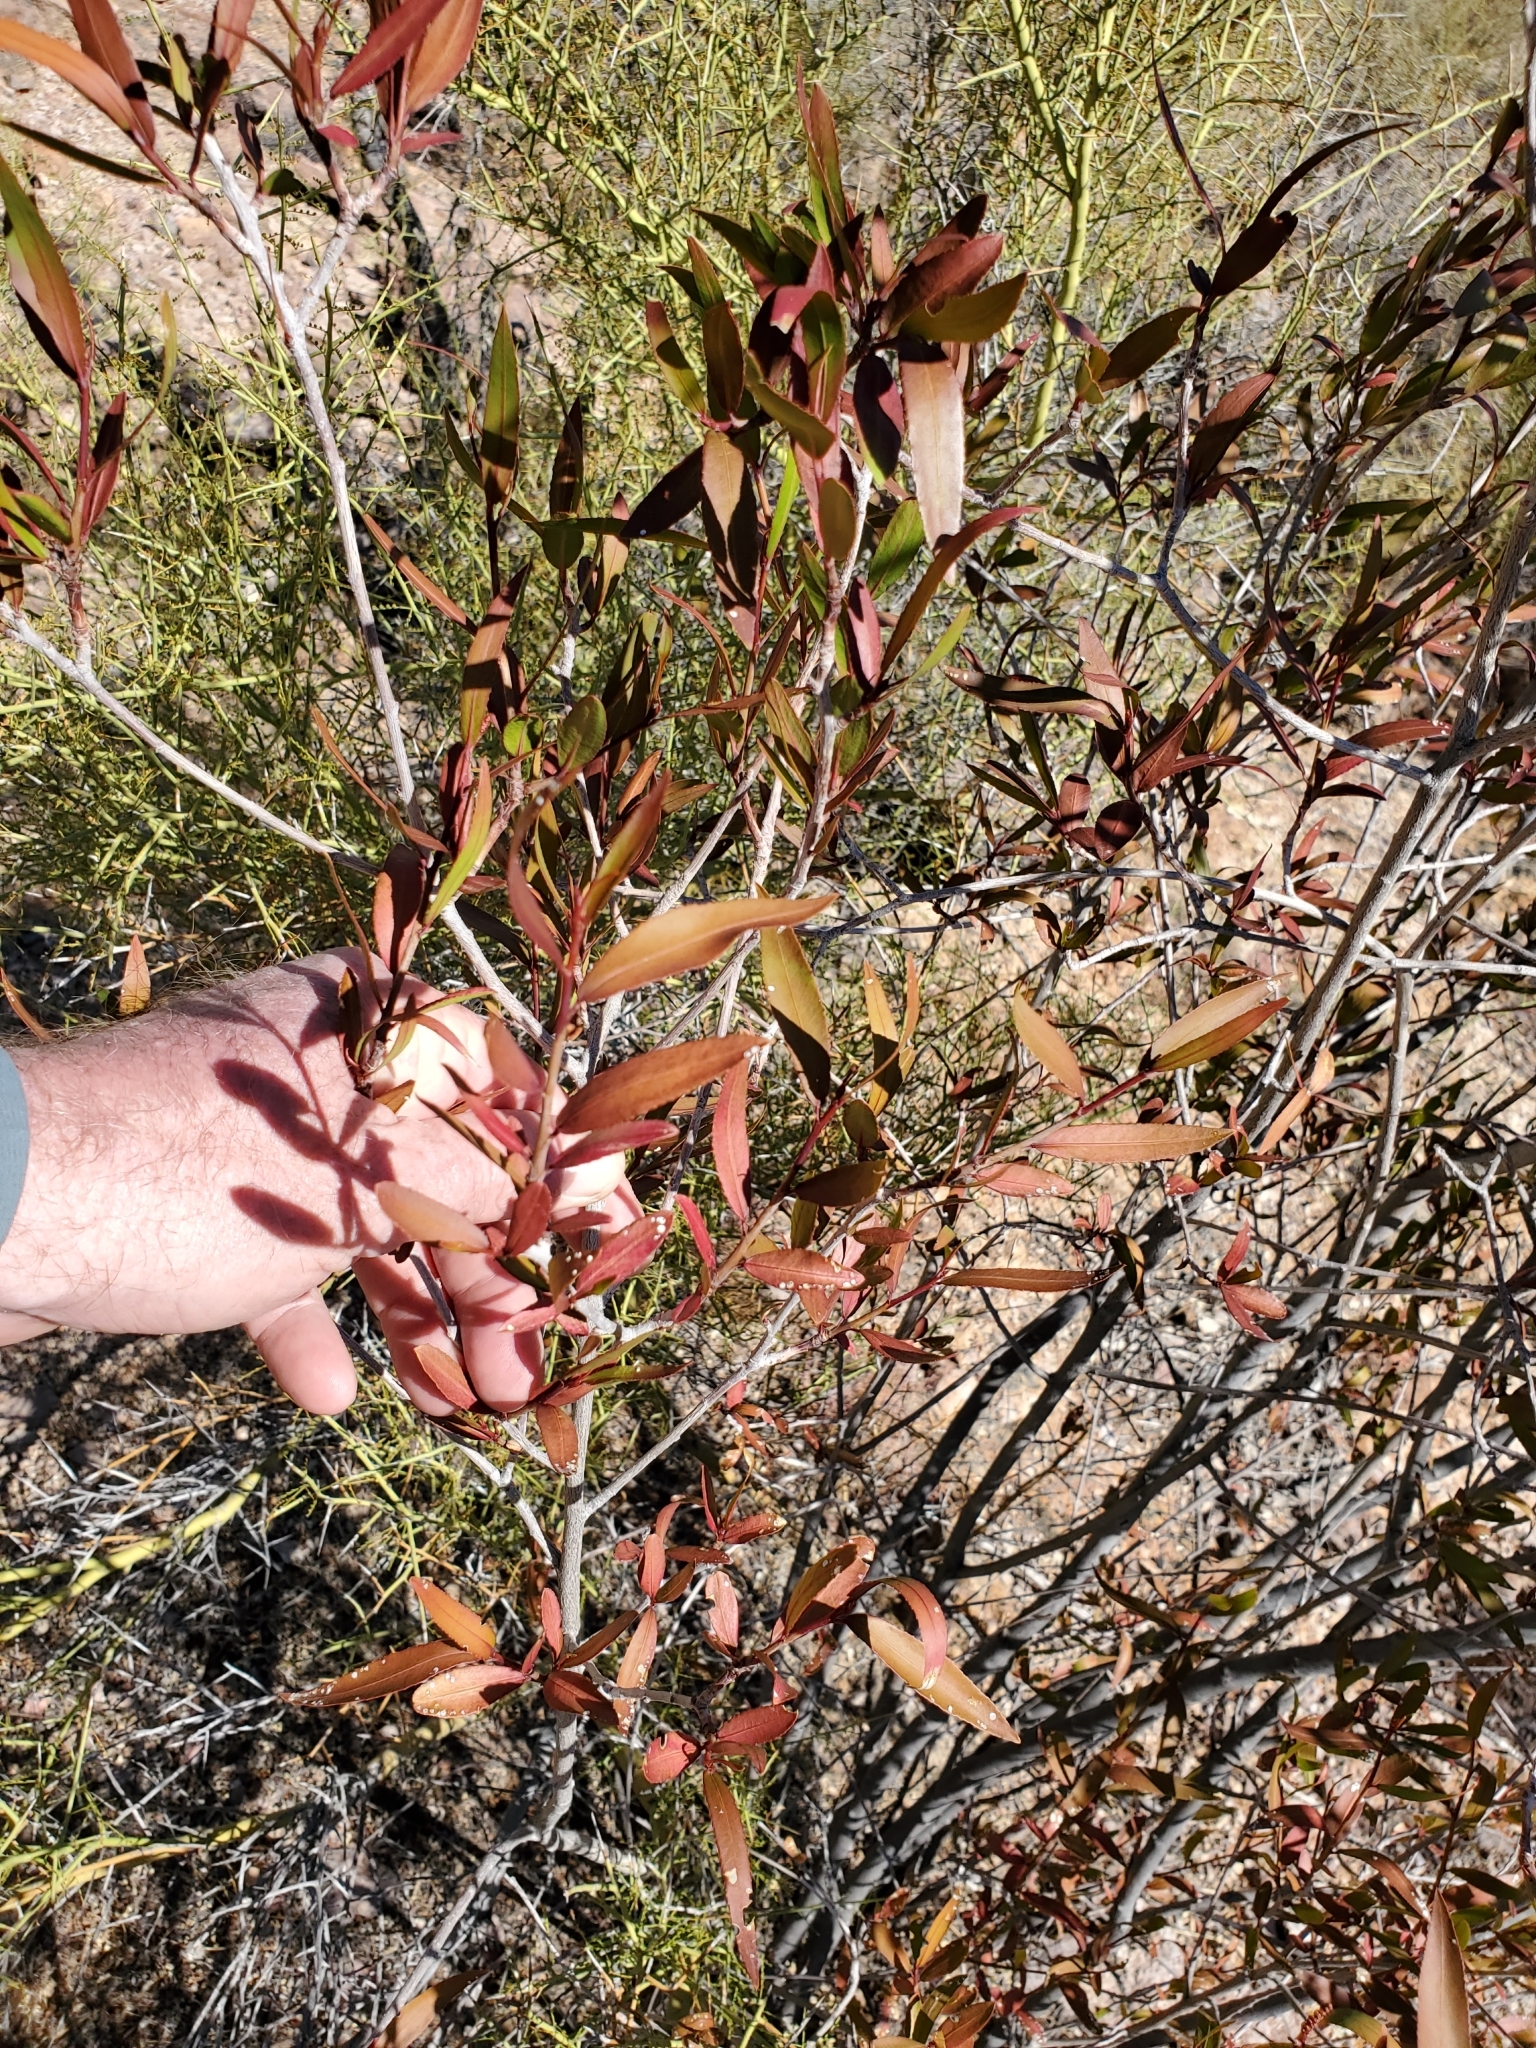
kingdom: Plantae
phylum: Tracheophyta
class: Magnoliopsida
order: Malpighiales
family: Euphorbiaceae
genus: Pleradenophora
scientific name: Pleradenophora bilocularis
